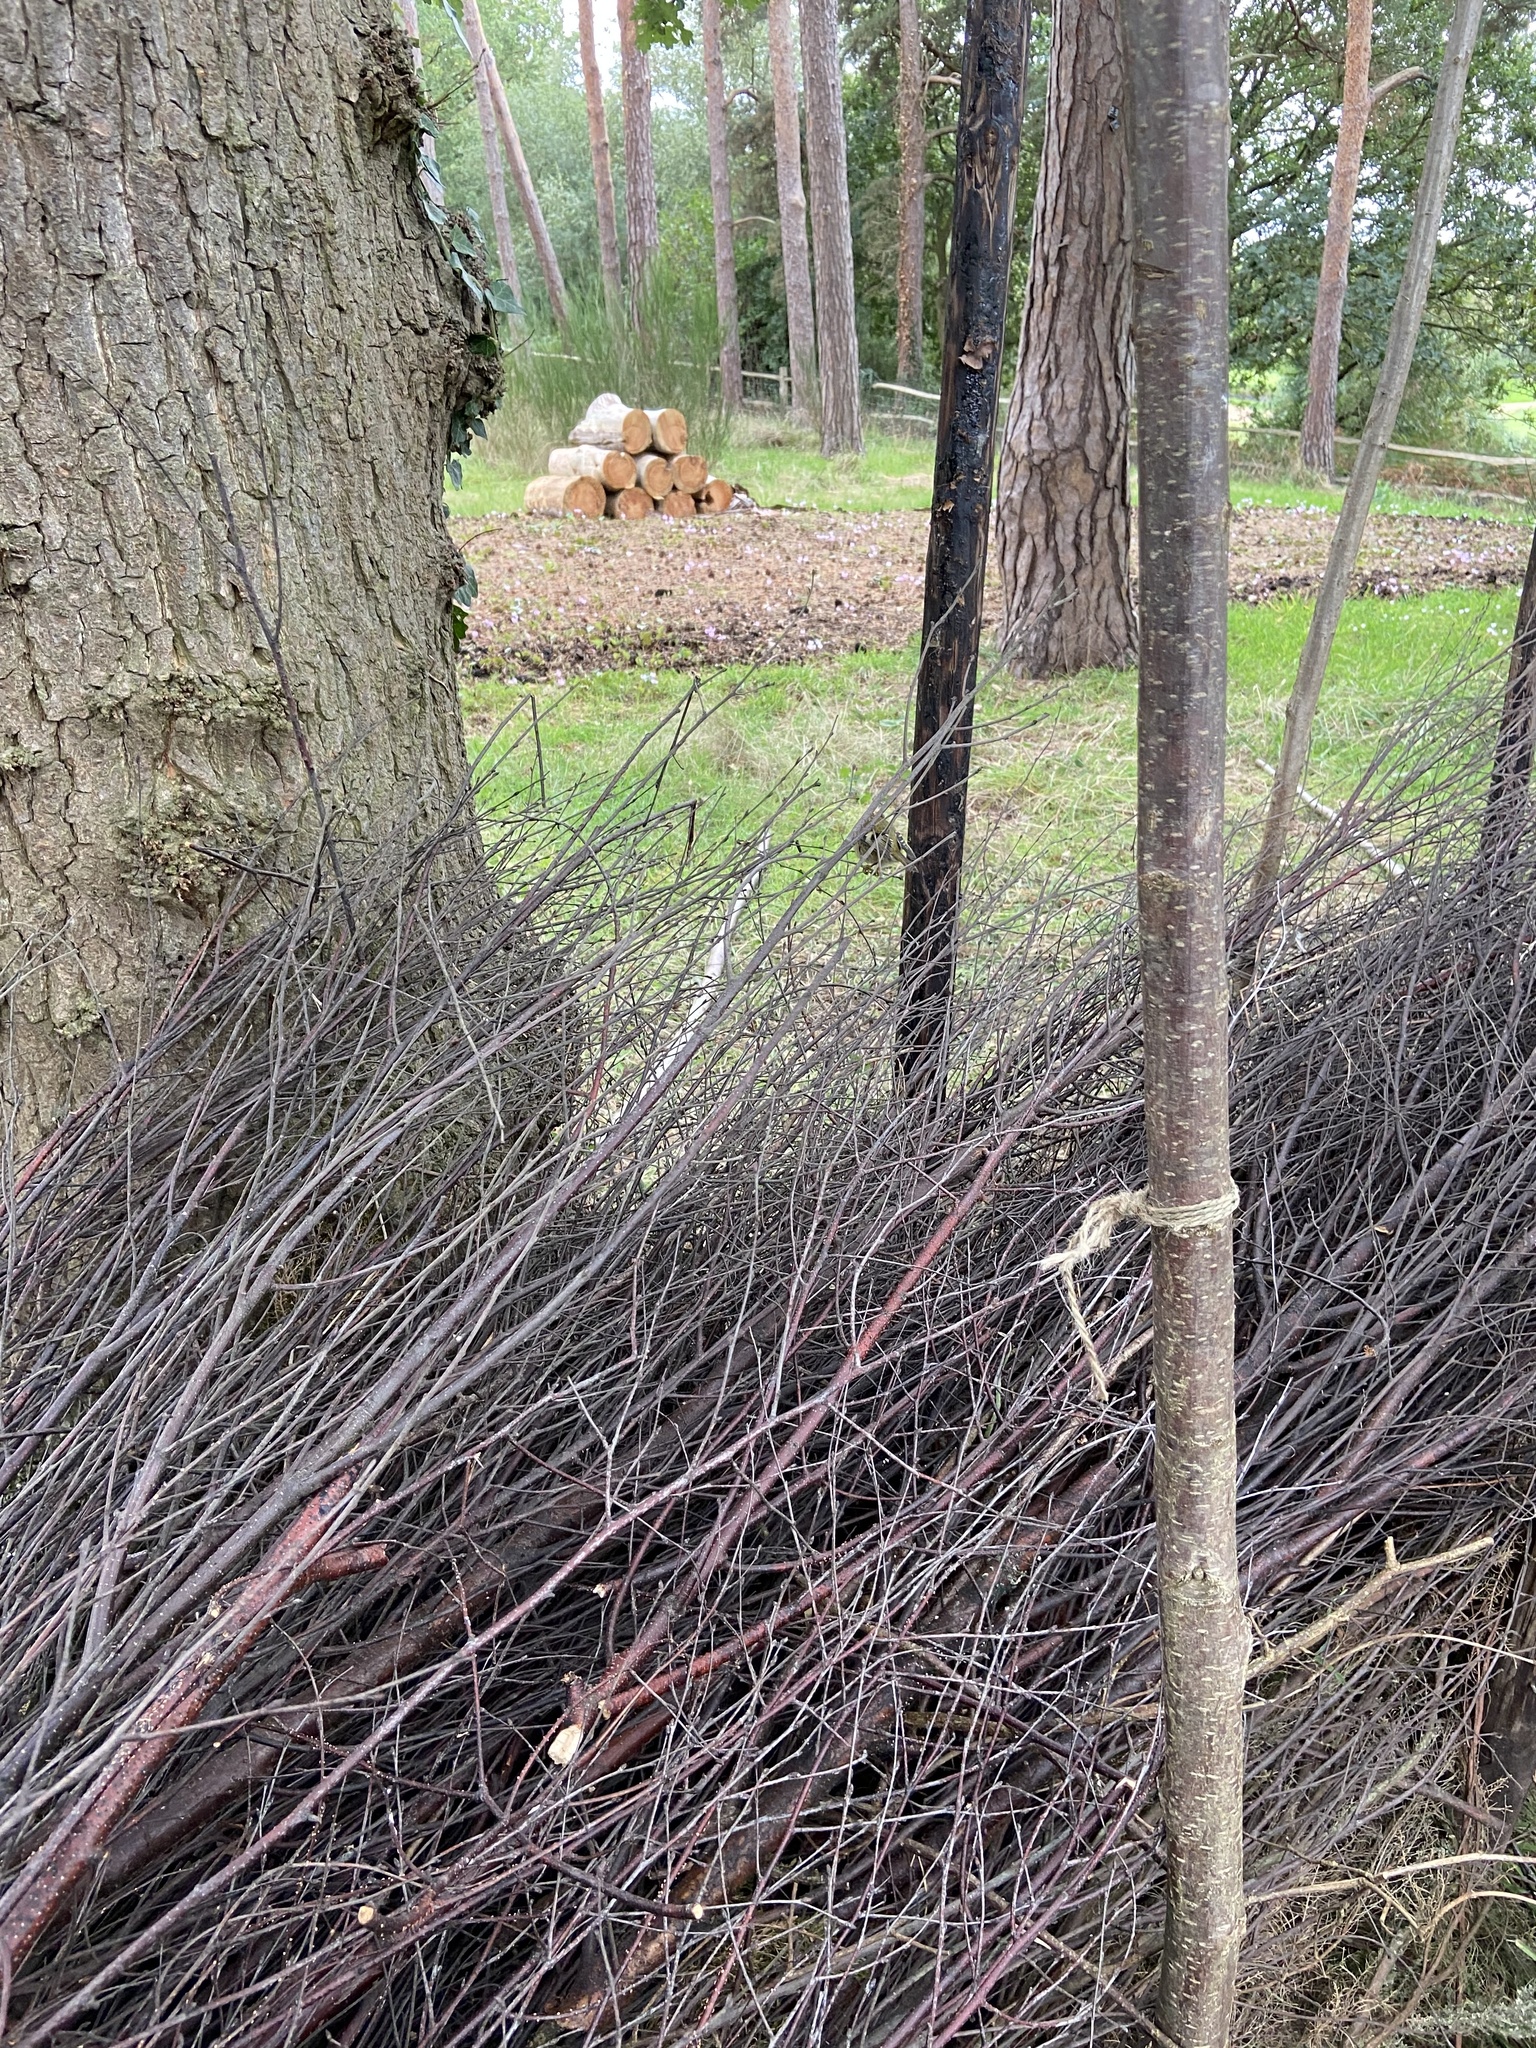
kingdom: Animalia
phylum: Chordata
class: Aves
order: Passeriformes
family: Regulidae
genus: Regulus
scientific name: Regulus regulus
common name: Goldcrest
